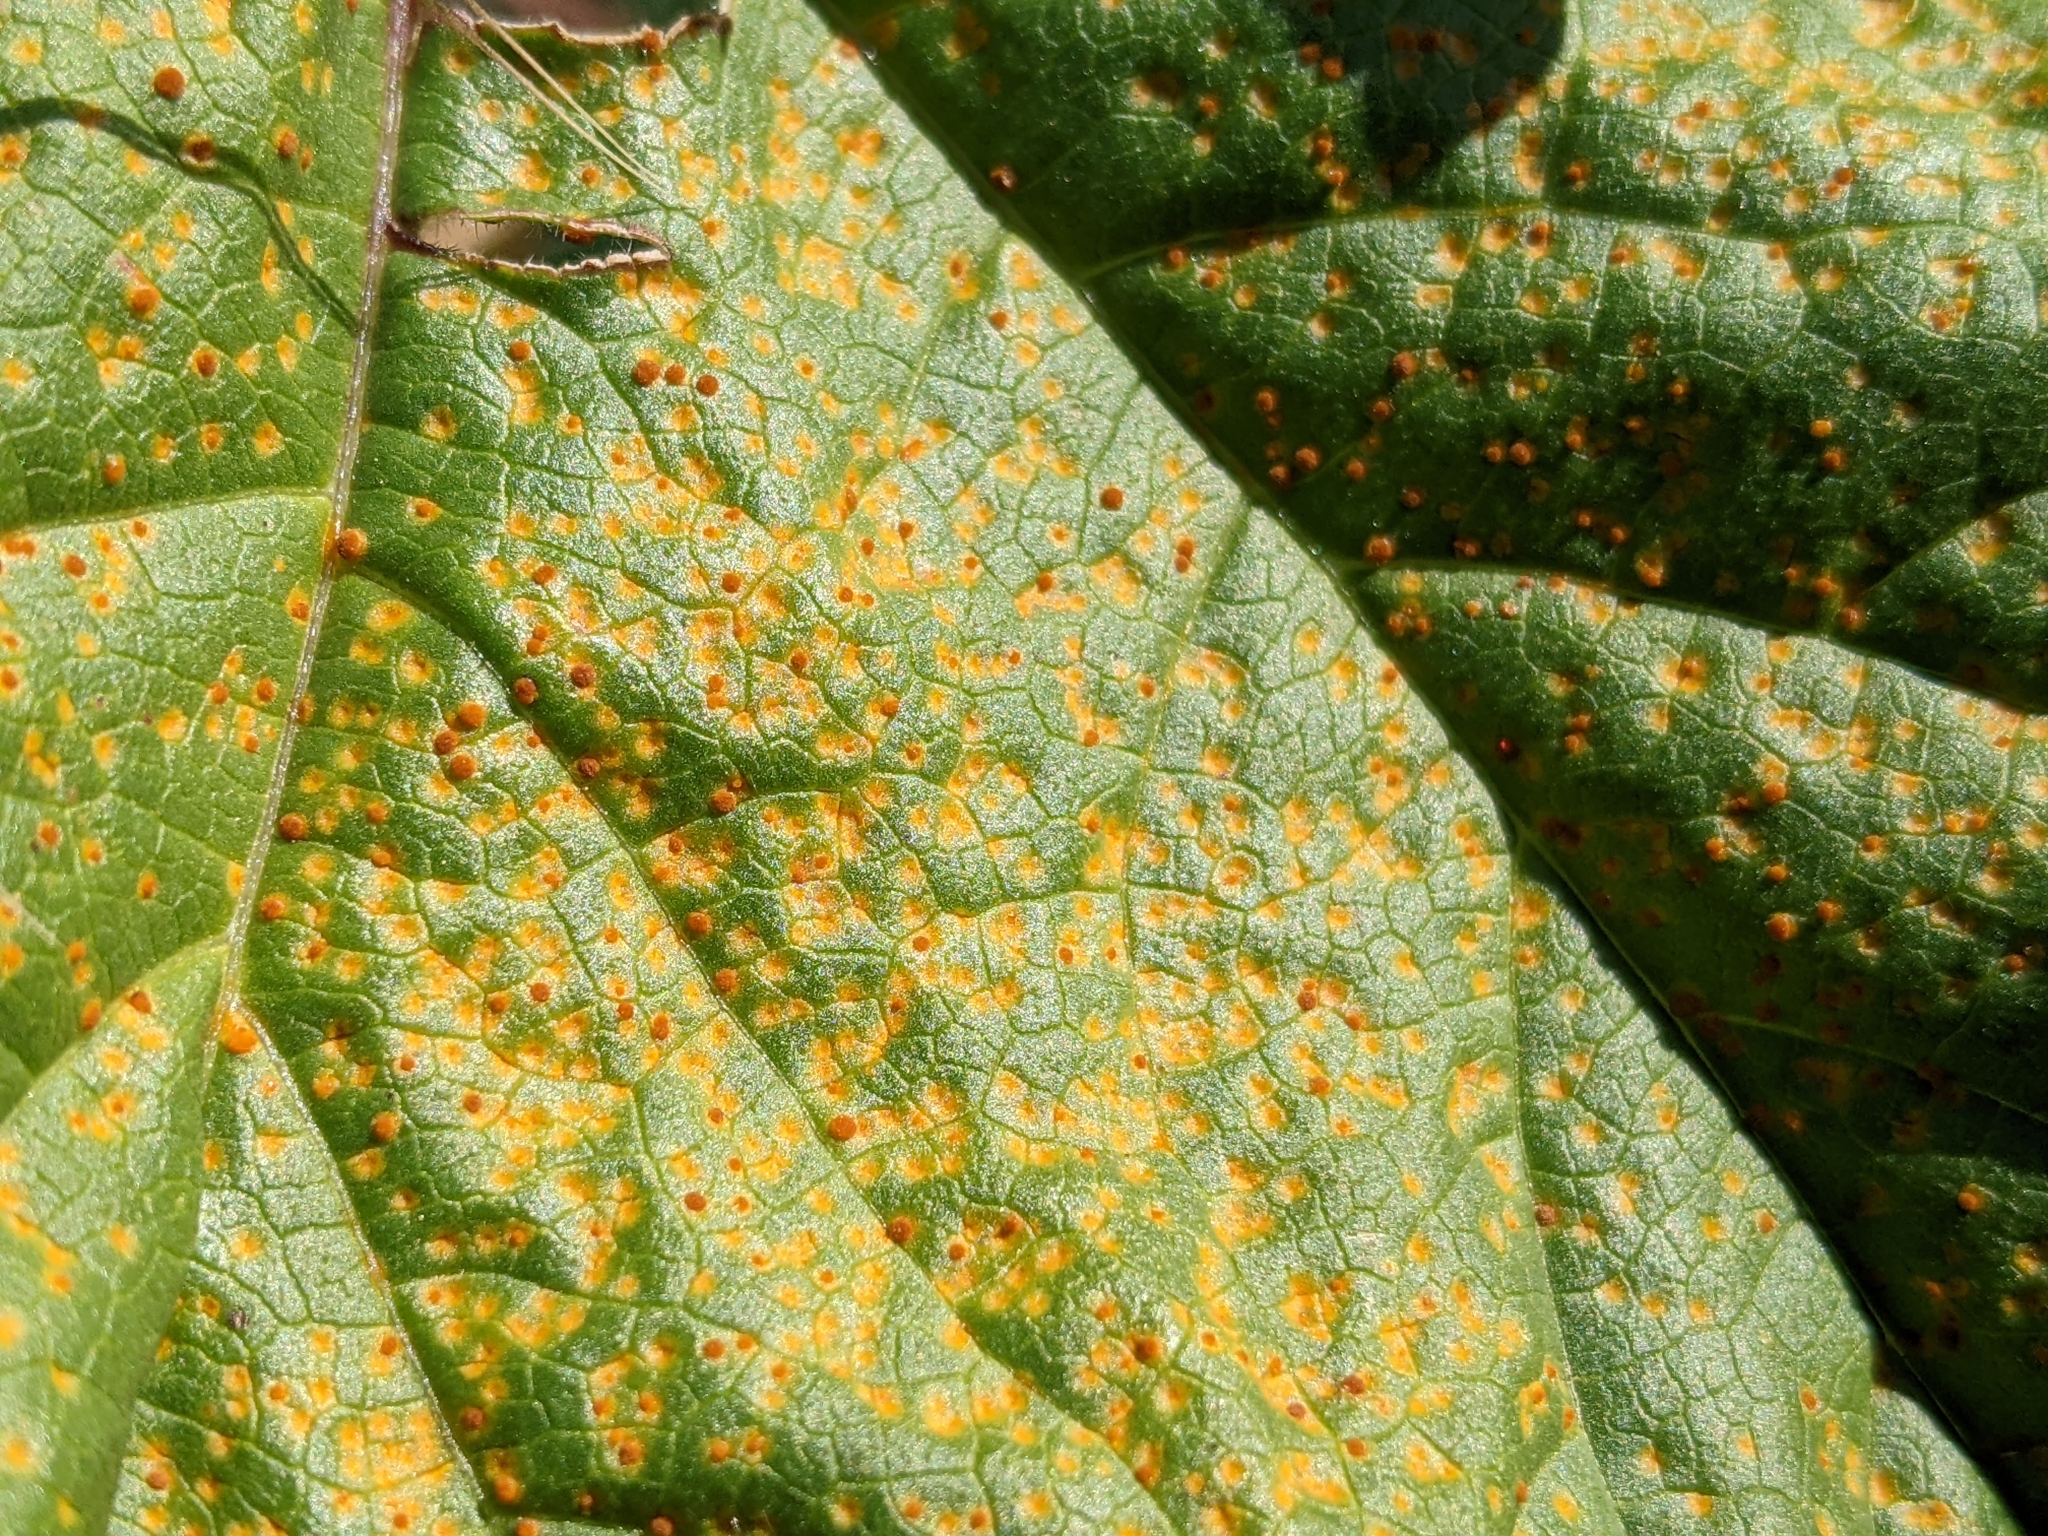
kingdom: Fungi
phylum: Basidiomycota
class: Pucciniomycetes
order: Pucciniales
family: Pucciniaceae
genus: Puccinia
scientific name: Puccinia malvacearum
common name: Hollyhock rust
